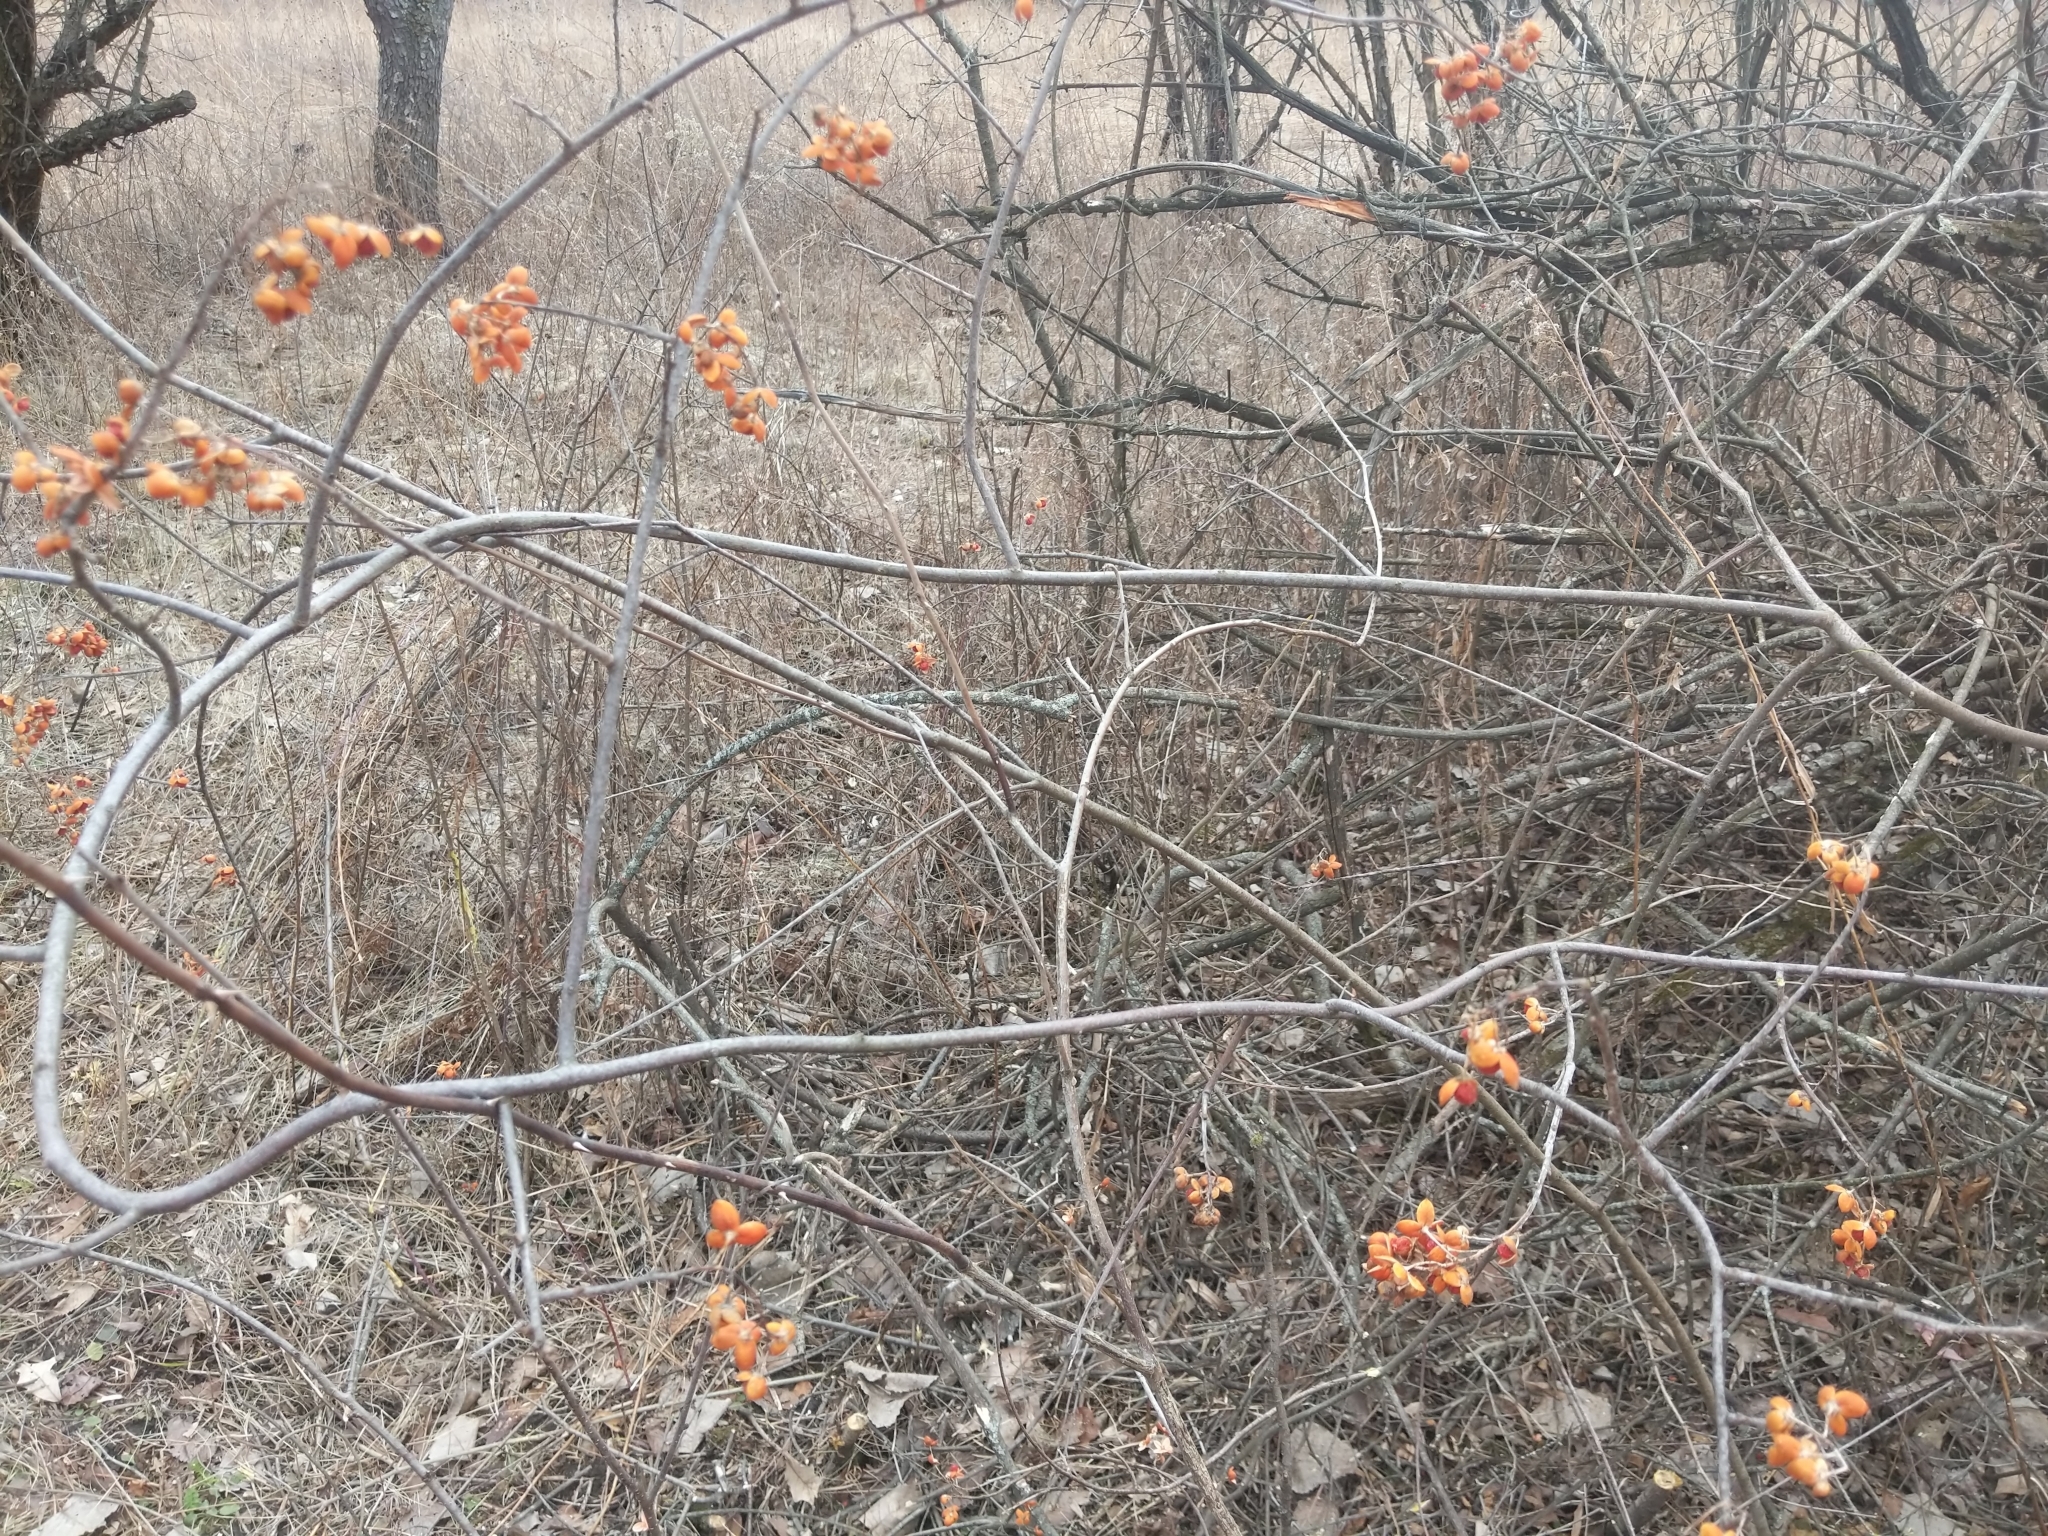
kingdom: Plantae
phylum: Tracheophyta
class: Magnoliopsida
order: Celastrales
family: Celastraceae
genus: Celastrus
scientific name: Celastrus scandens
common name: American bittersweet
